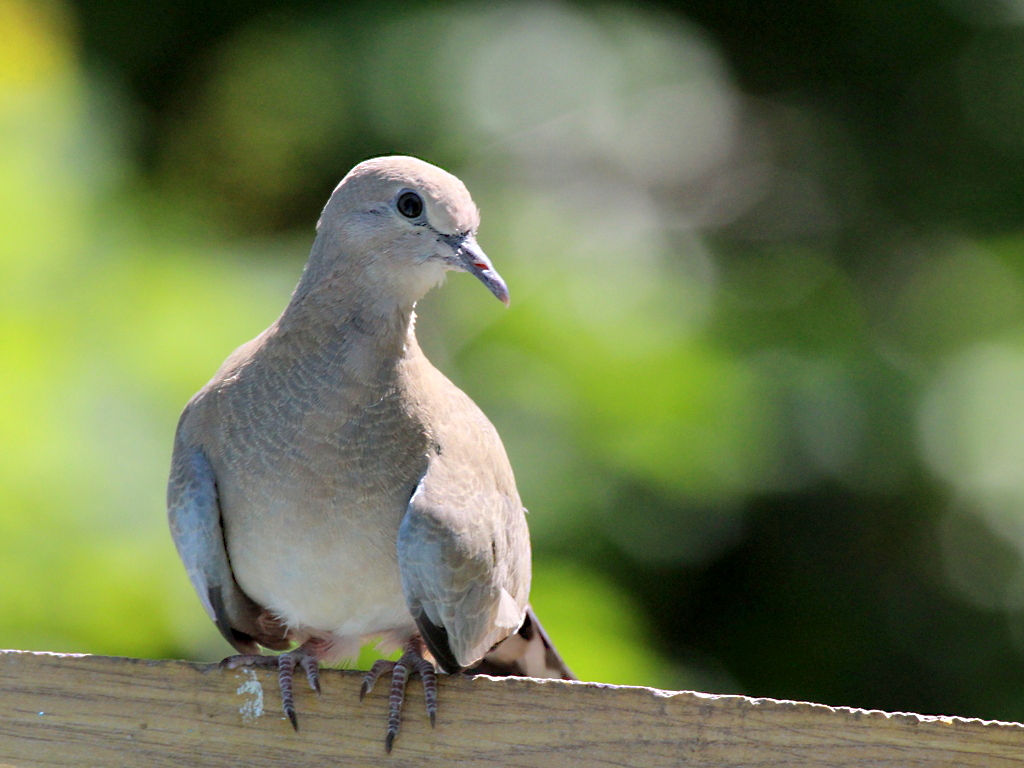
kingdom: Animalia
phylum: Chordata
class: Aves
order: Columbiformes
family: Columbidae
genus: Spilopelia
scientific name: Spilopelia senegalensis
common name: Laughing dove
